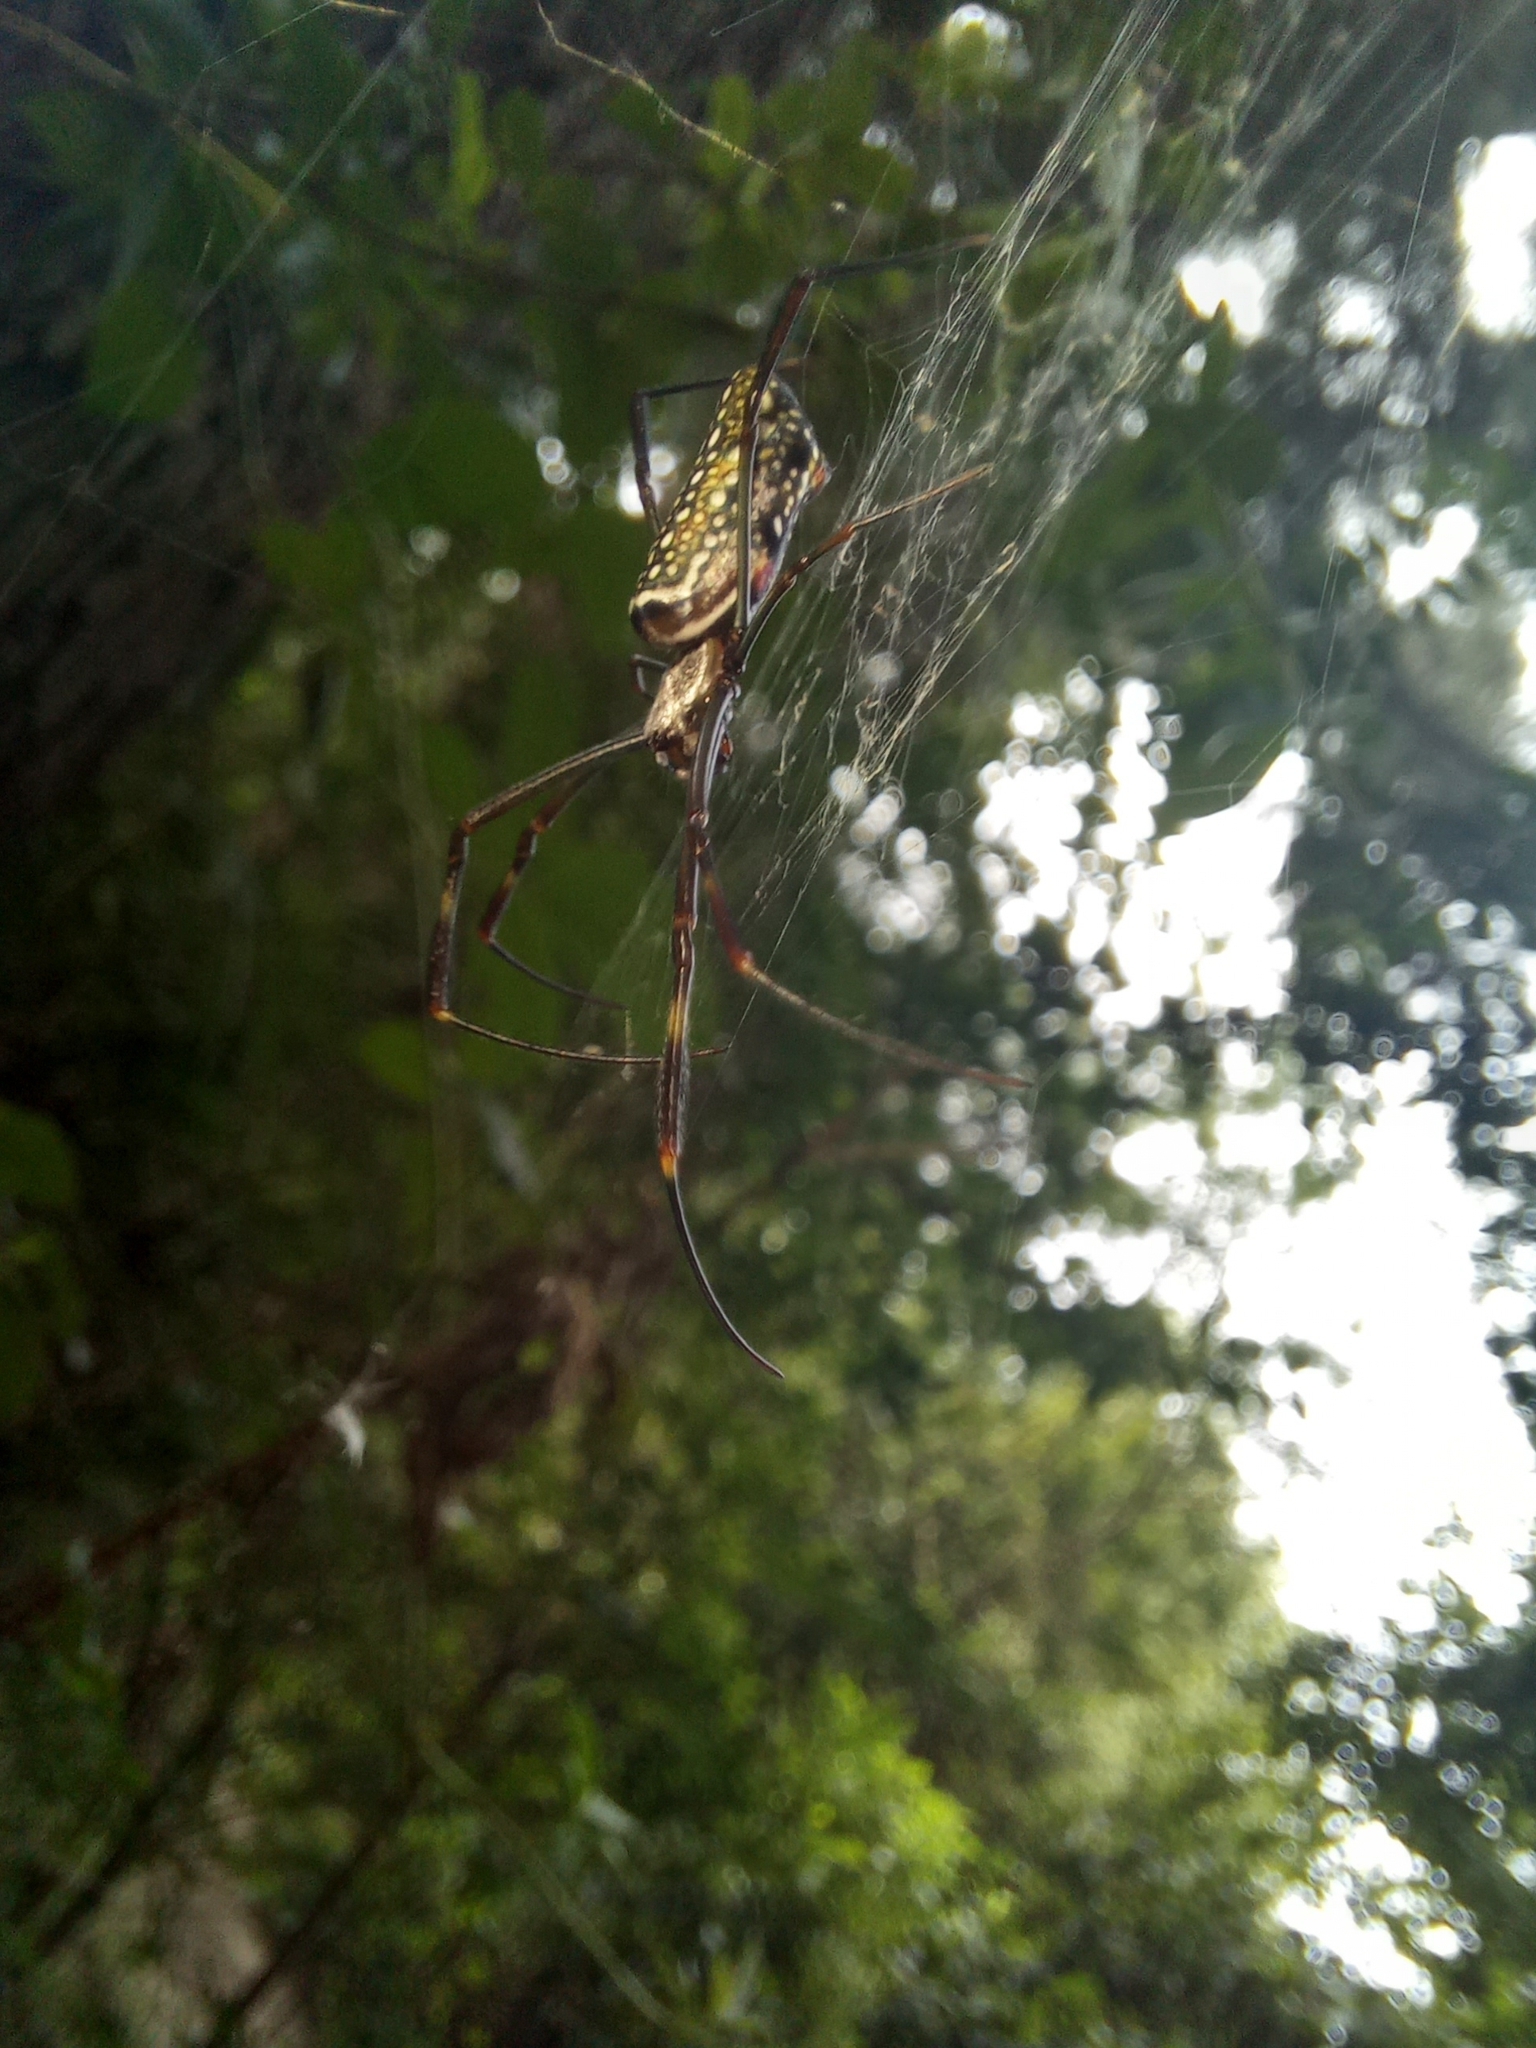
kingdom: Animalia
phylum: Arthropoda
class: Arachnida
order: Araneae
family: Araneidae
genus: Trichonephila
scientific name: Trichonephila clavipes
